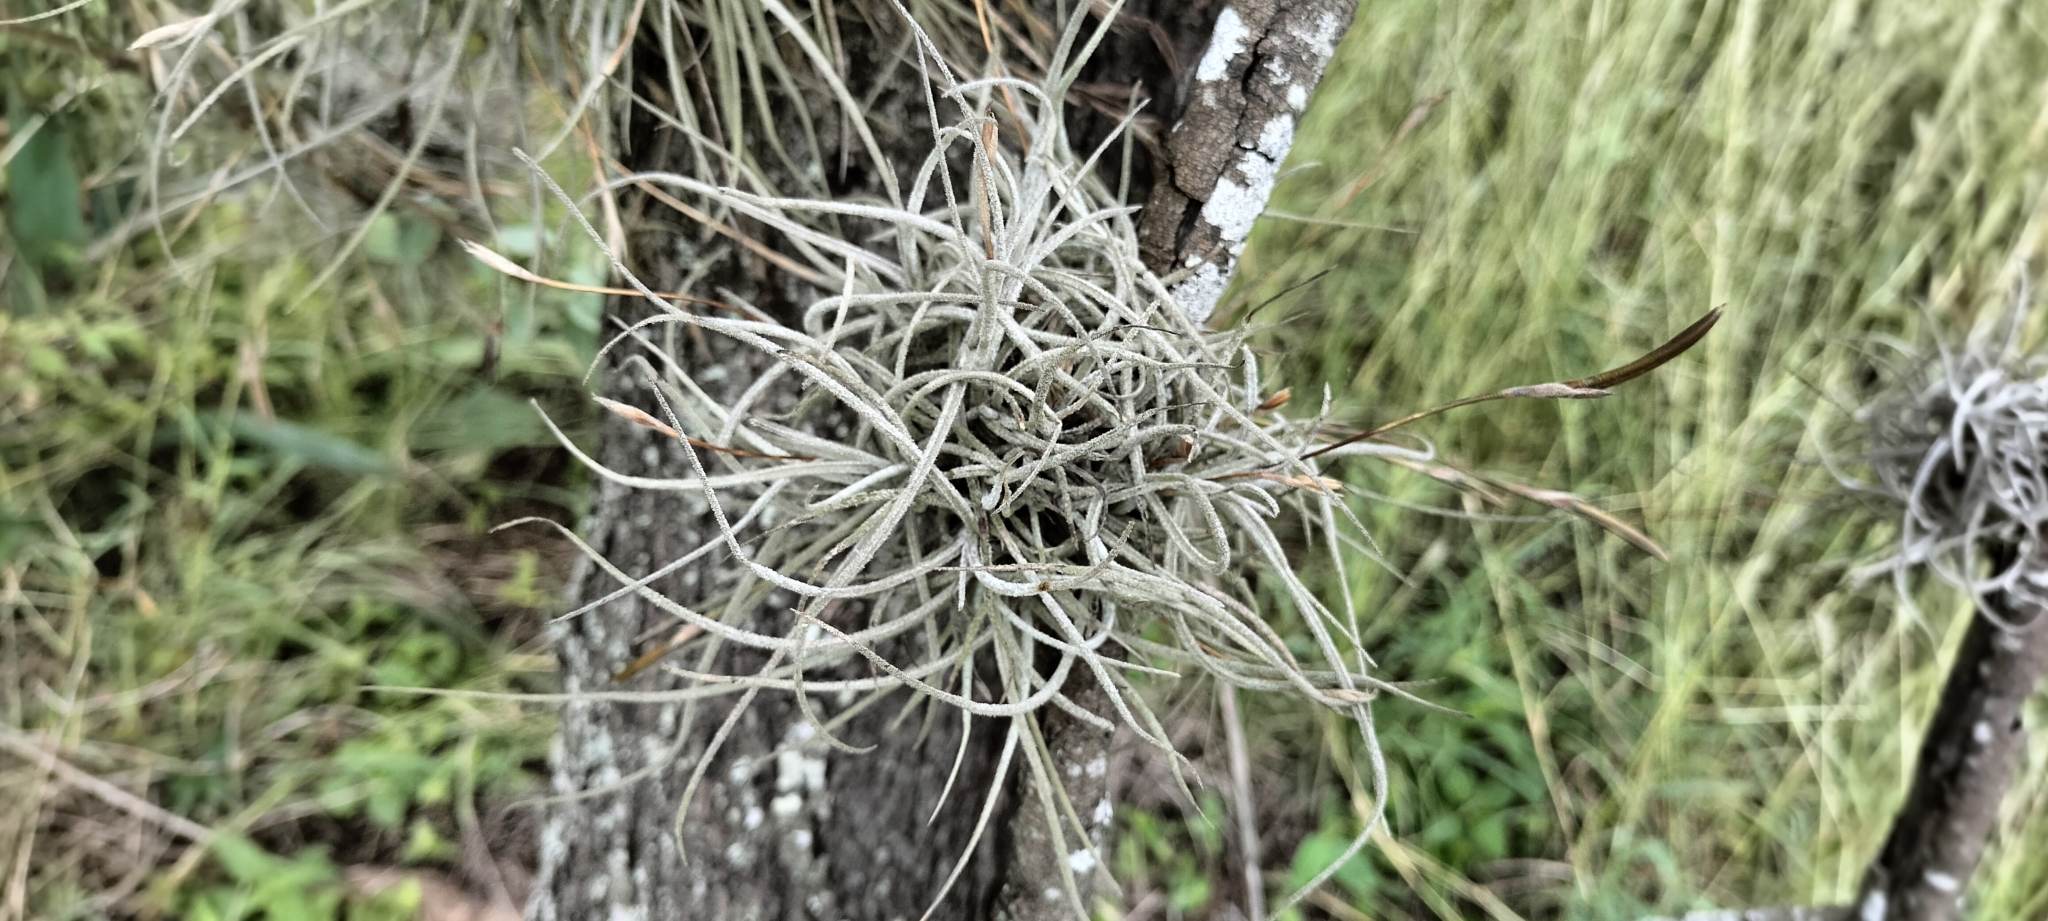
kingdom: Plantae
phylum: Tracheophyta
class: Liliopsida
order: Poales
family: Bromeliaceae
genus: Tillandsia
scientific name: Tillandsia recurvata
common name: Small ballmoss
